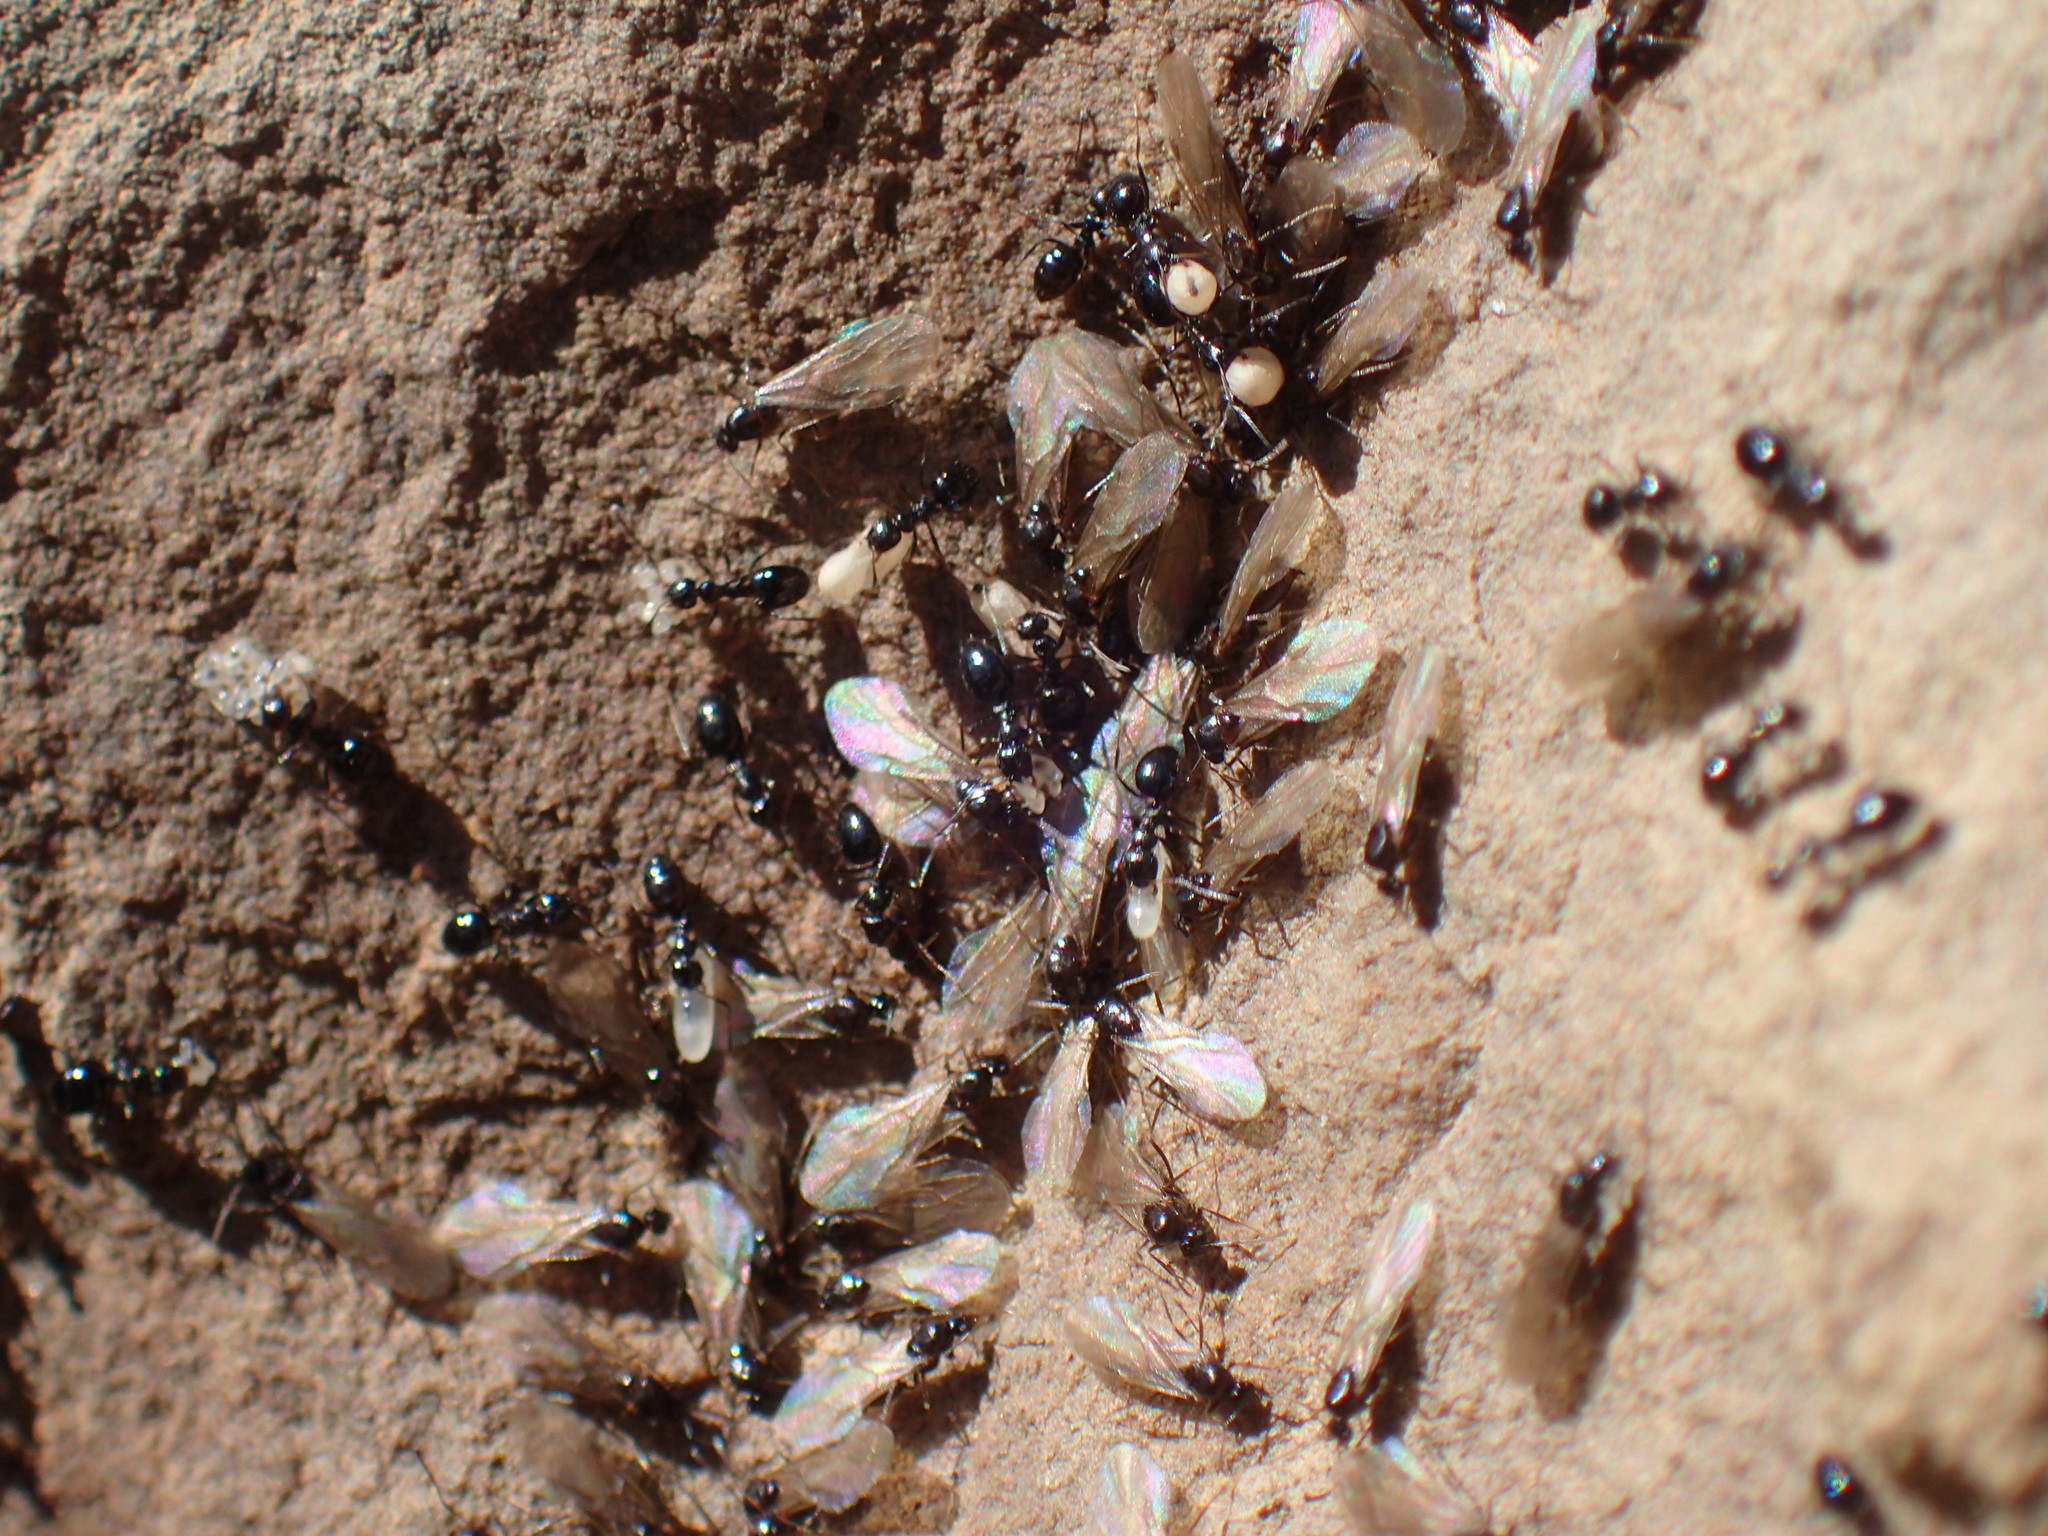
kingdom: Animalia
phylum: Arthropoda
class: Insecta
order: Hymenoptera
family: Formicidae
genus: Lepisiota
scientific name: Lepisiota capensis
